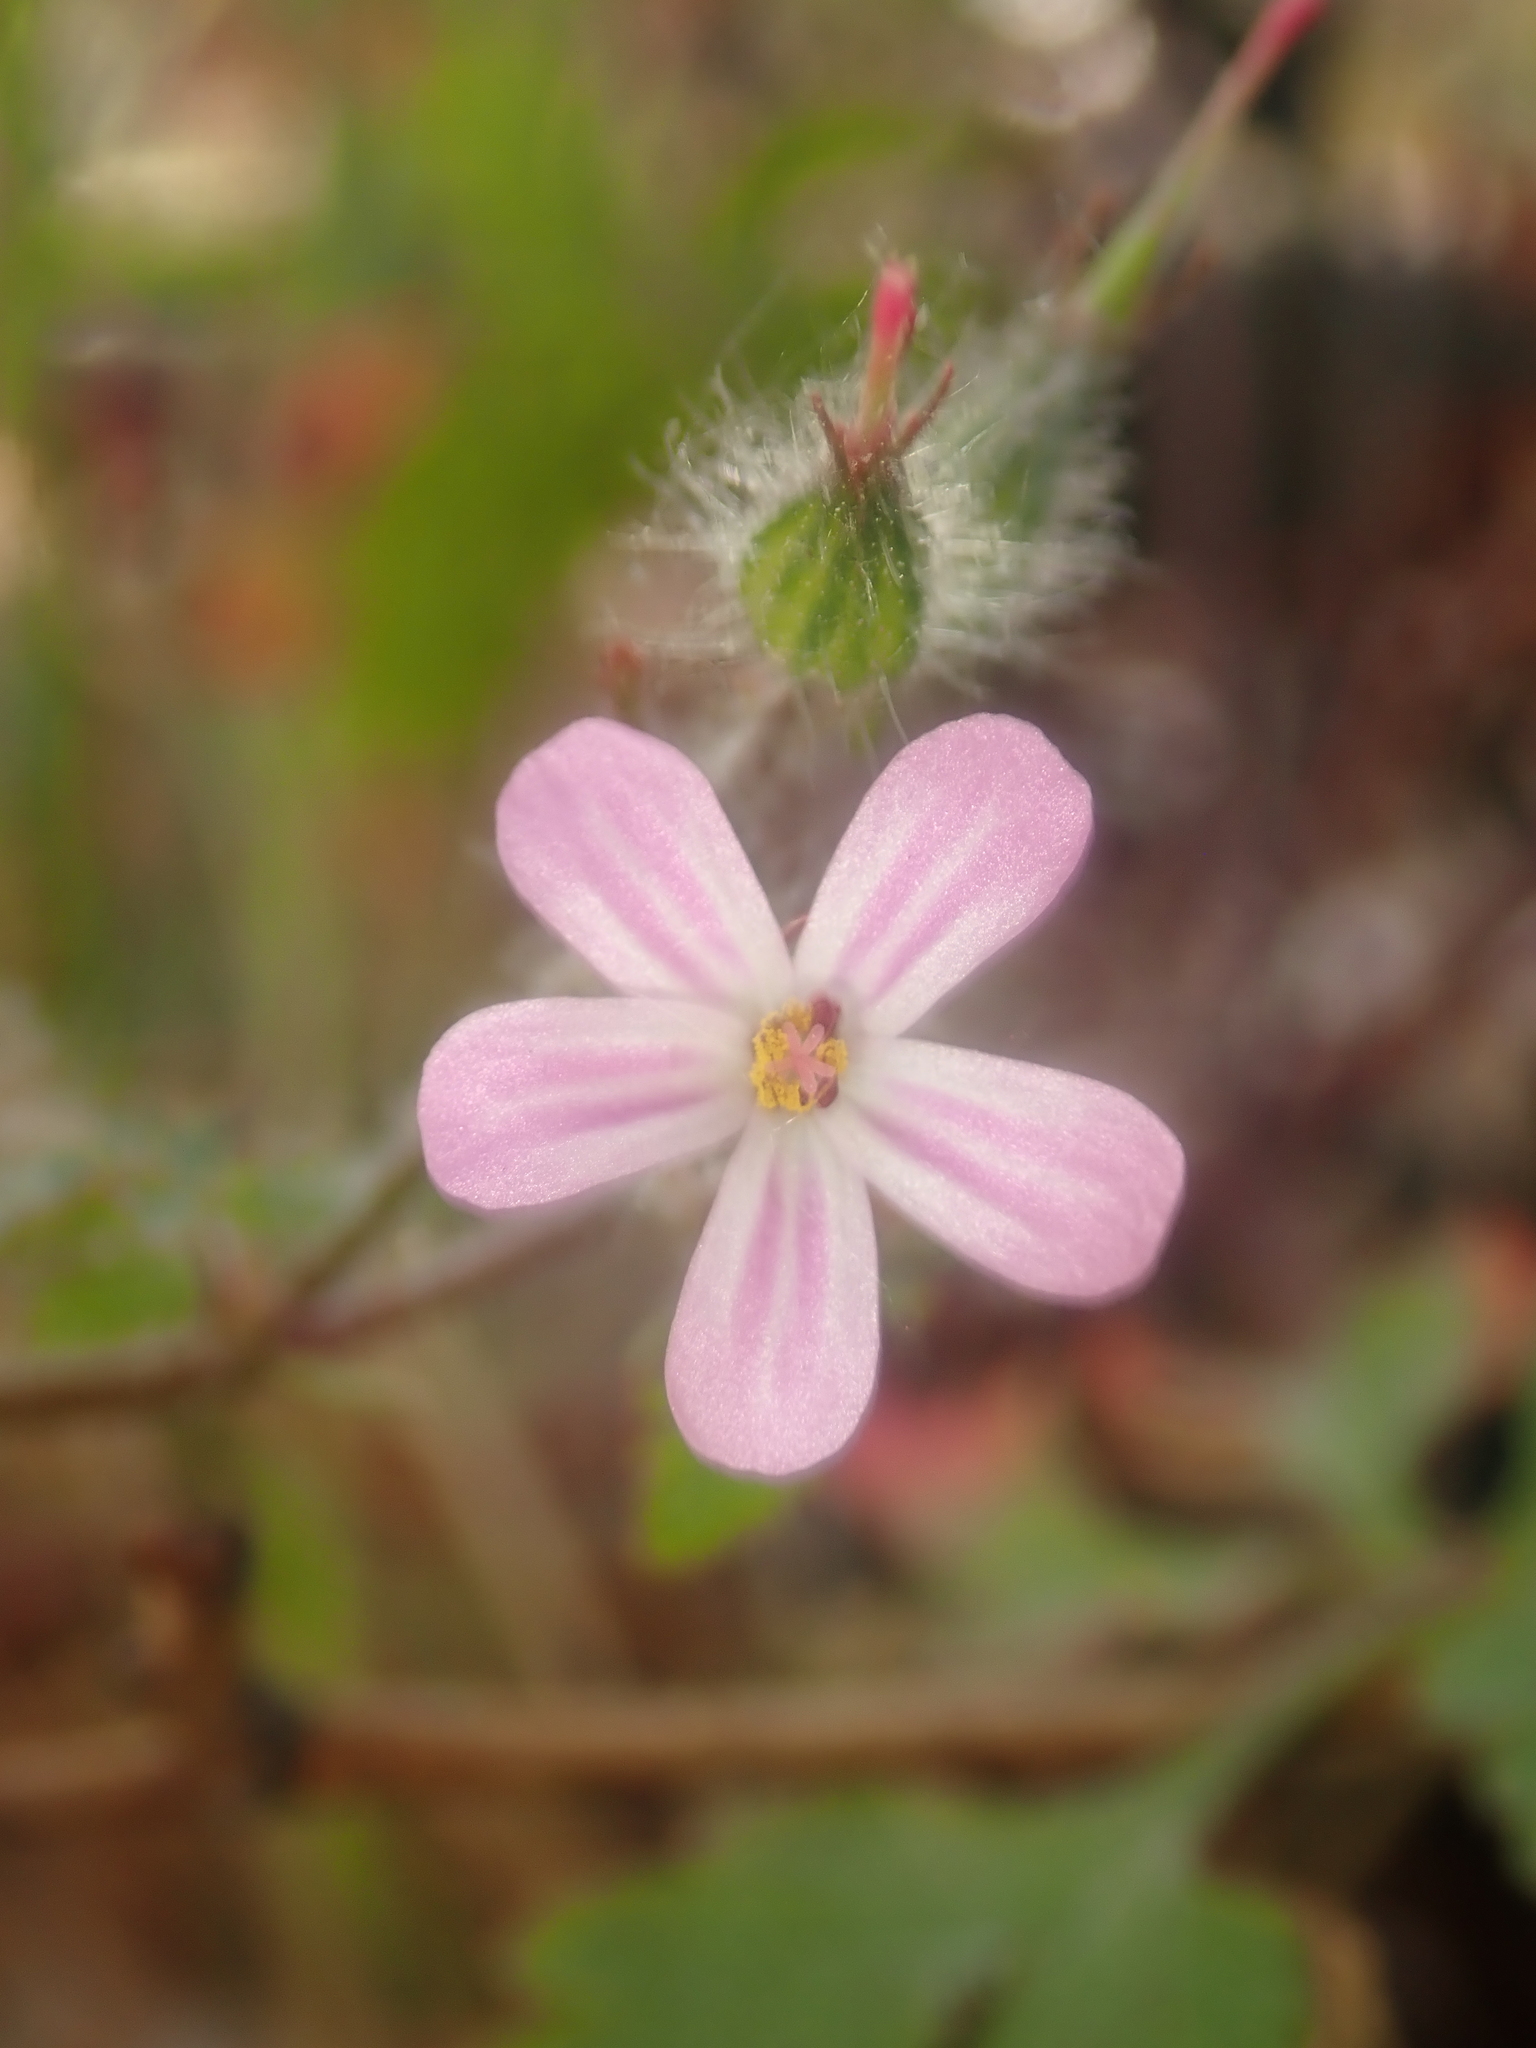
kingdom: Plantae
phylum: Tracheophyta
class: Magnoliopsida
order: Geraniales
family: Geraniaceae
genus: Geranium
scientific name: Geranium robertianum
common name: Herb-robert
